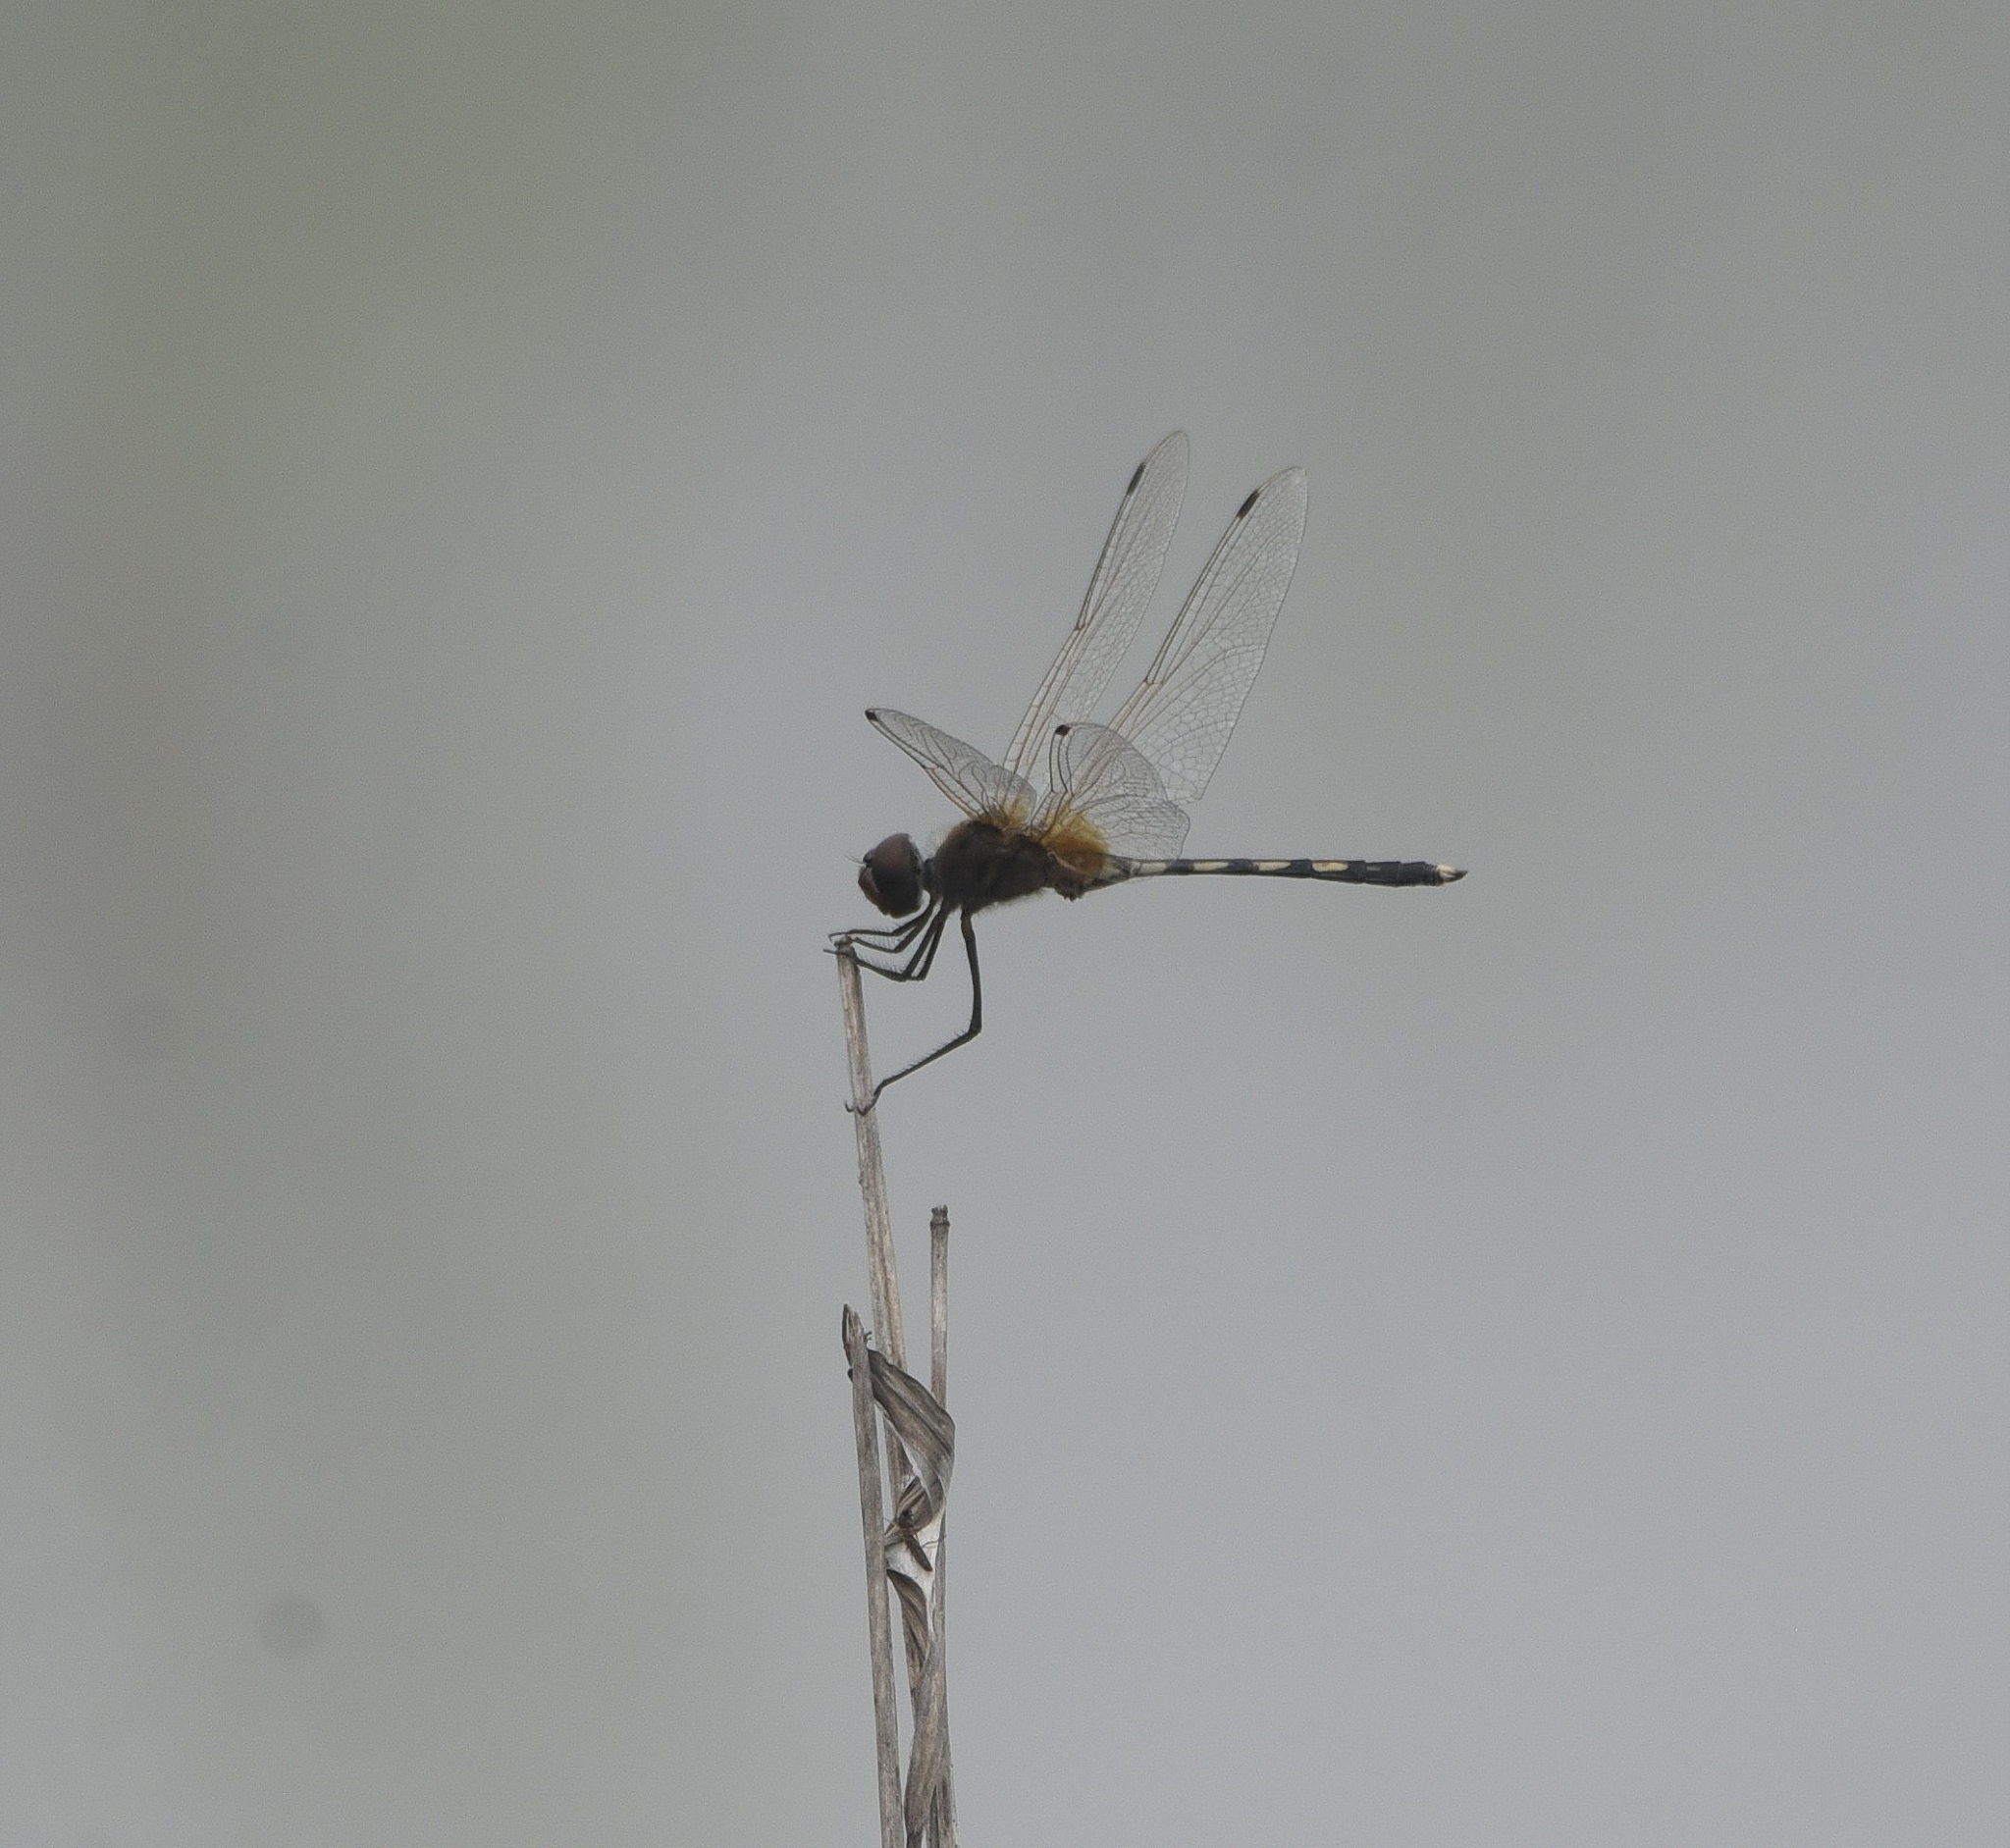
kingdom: Animalia
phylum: Arthropoda
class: Insecta
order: Odonata
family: Libellulidae
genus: Trithemis
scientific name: Trithemis pallidinervis
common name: Dancing dropwing
